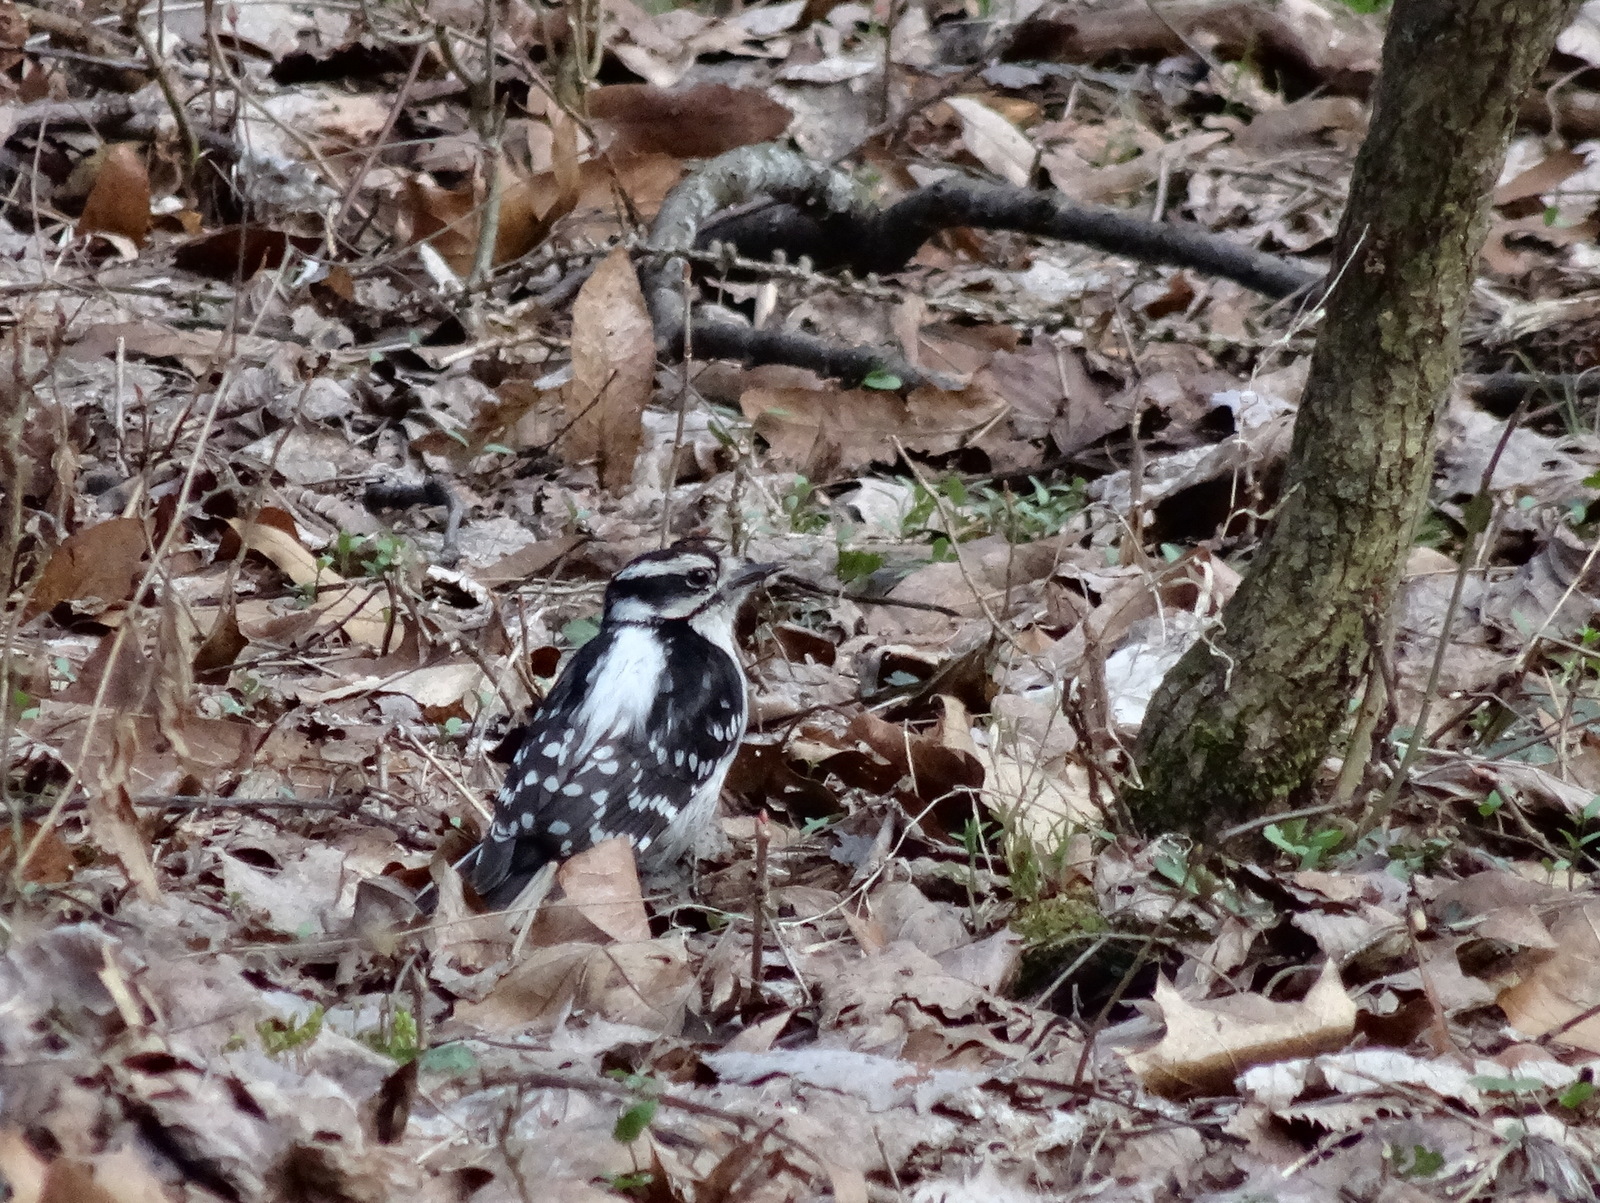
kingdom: Animalia
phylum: Chordata
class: Aves
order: Piciformes
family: Picidae
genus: Dryobates
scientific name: Dryobates pubescens
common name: Downy woodpecker
